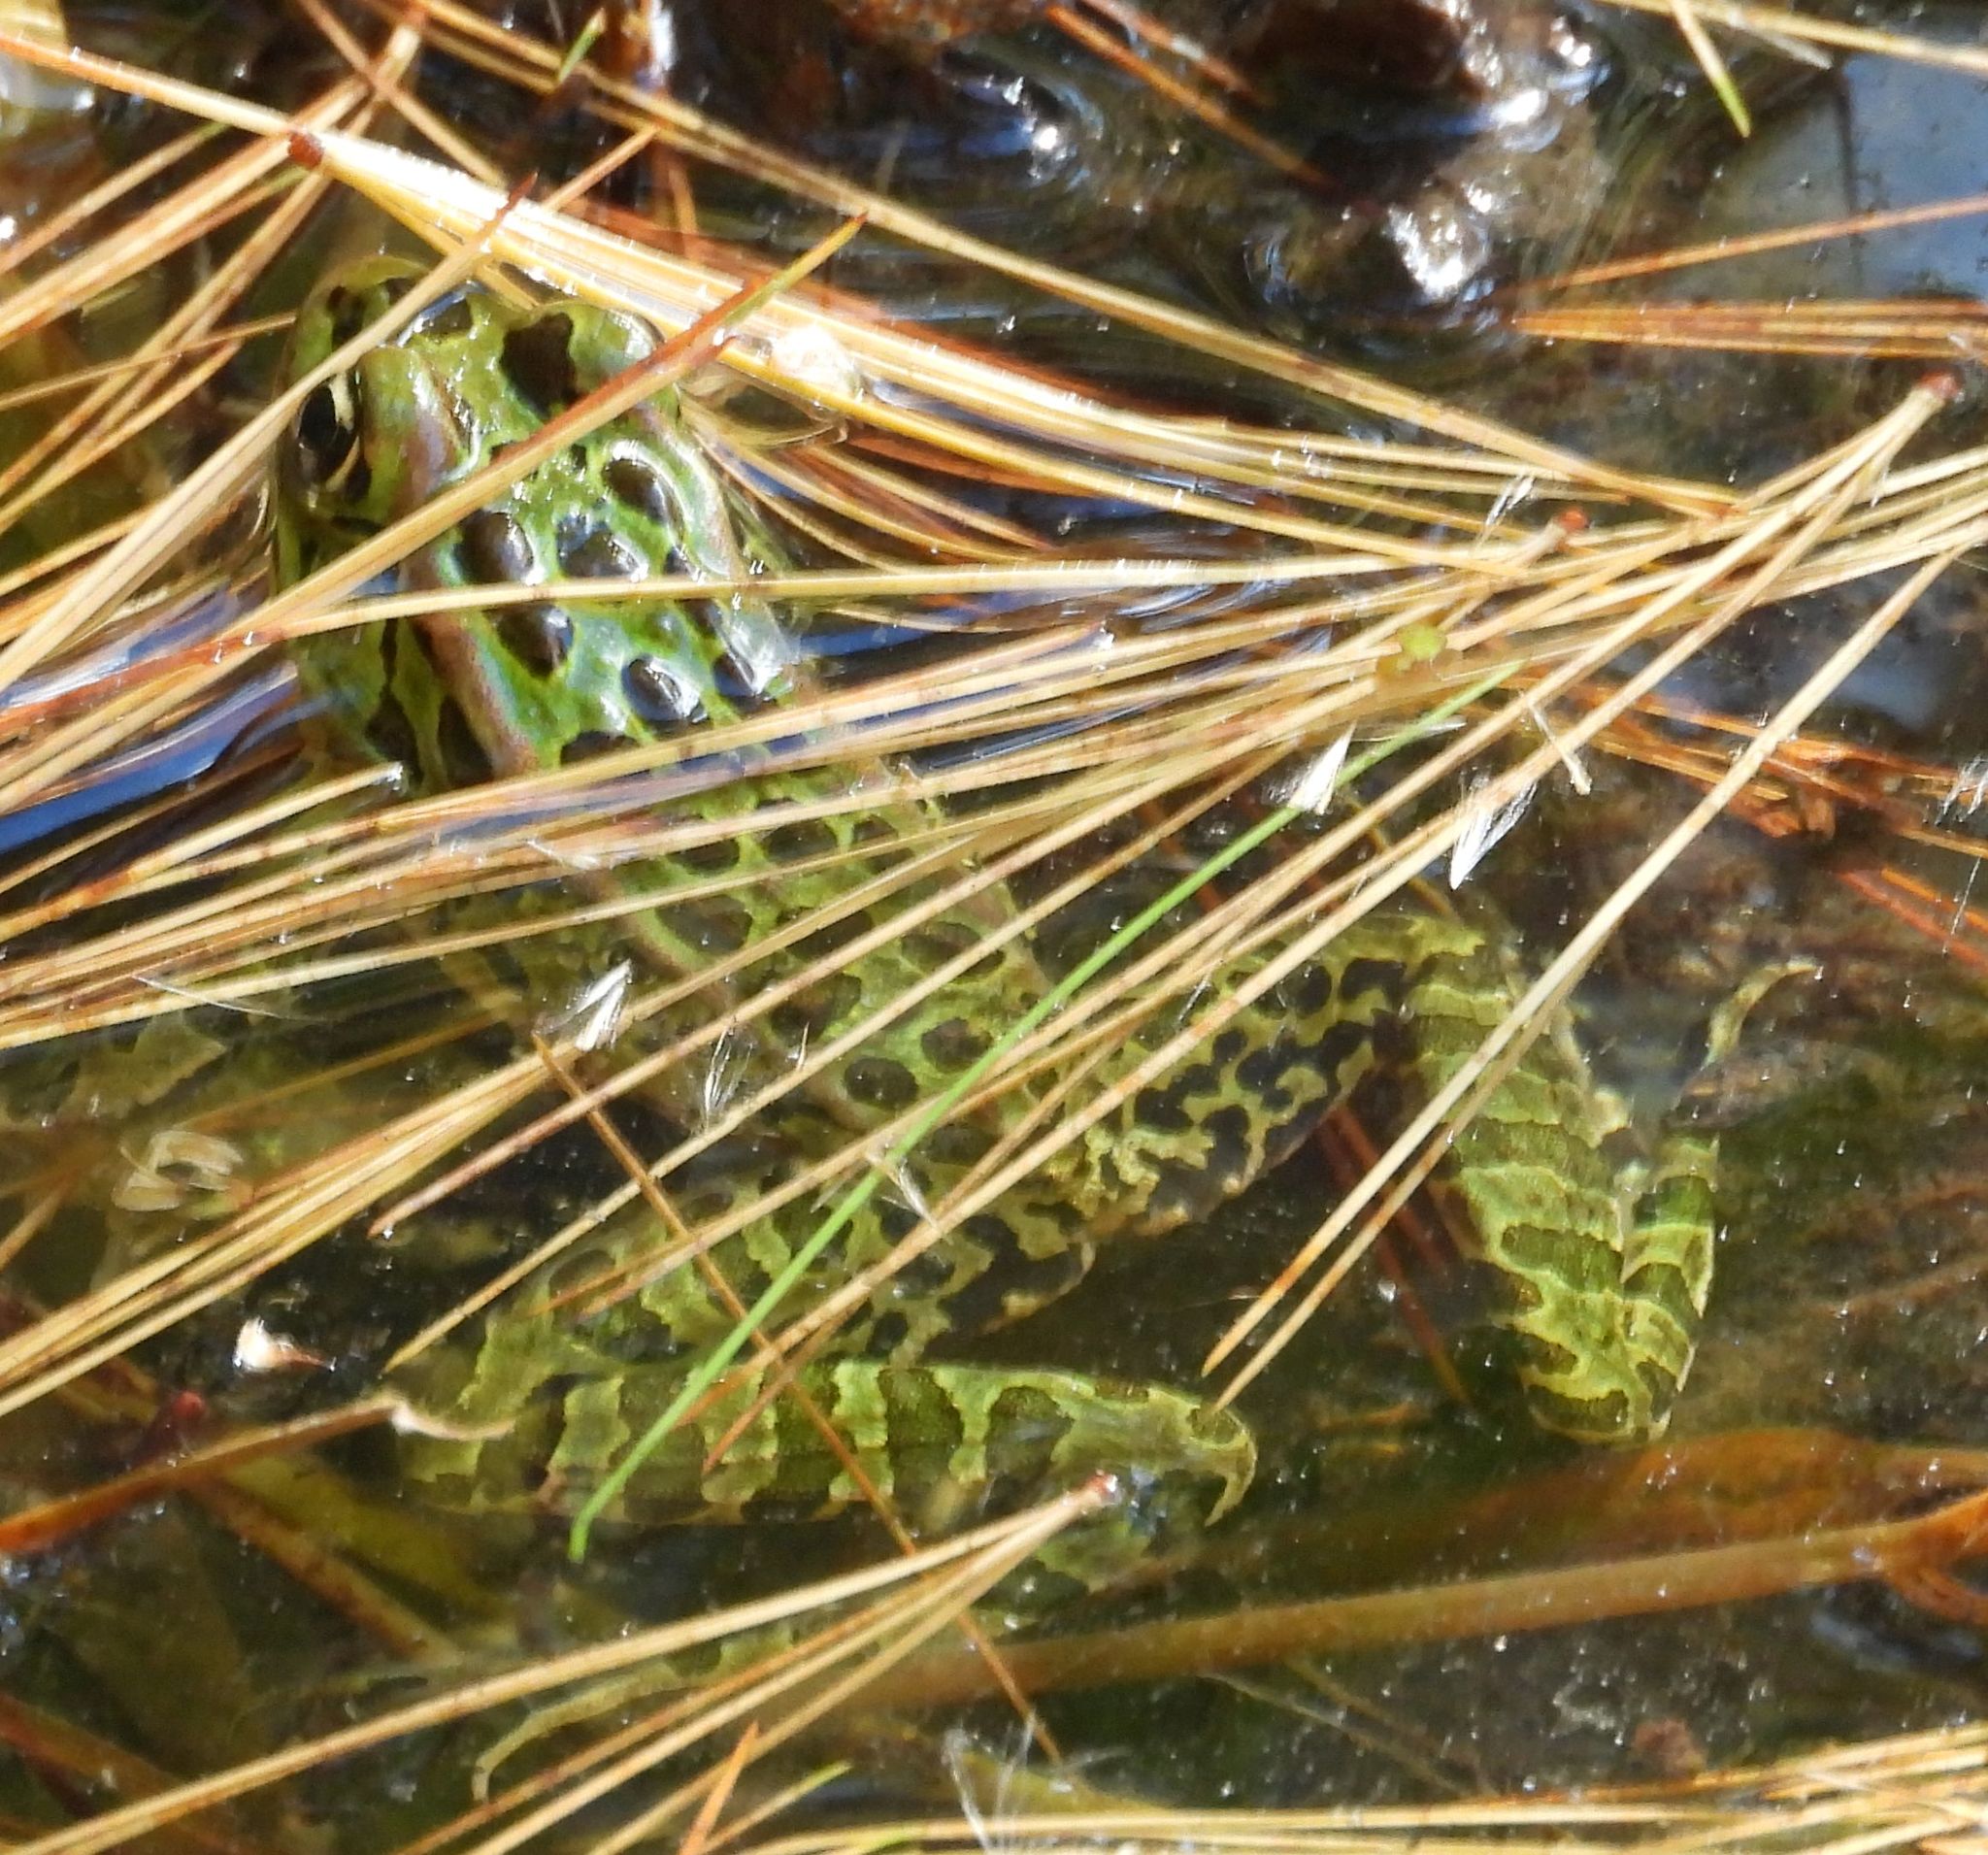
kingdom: Animalia
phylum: Chordata
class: Amphibia
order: Anura
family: Ranidae
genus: Lithobates
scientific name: Lithobates pipiens
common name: Northern leopard frog
